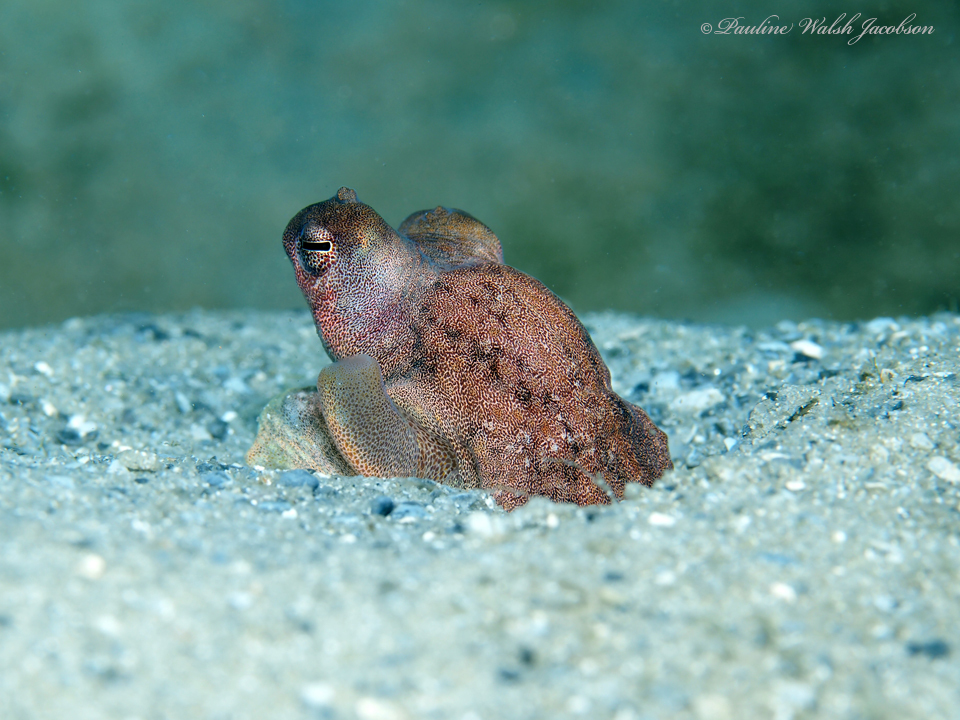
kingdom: Animalia
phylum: Mollusca
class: Cephalopoda
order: Octopoda
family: Octopodidae
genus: Macrotritopus
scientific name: Macrotritopus defilippi
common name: Lilliput longarm octopus
